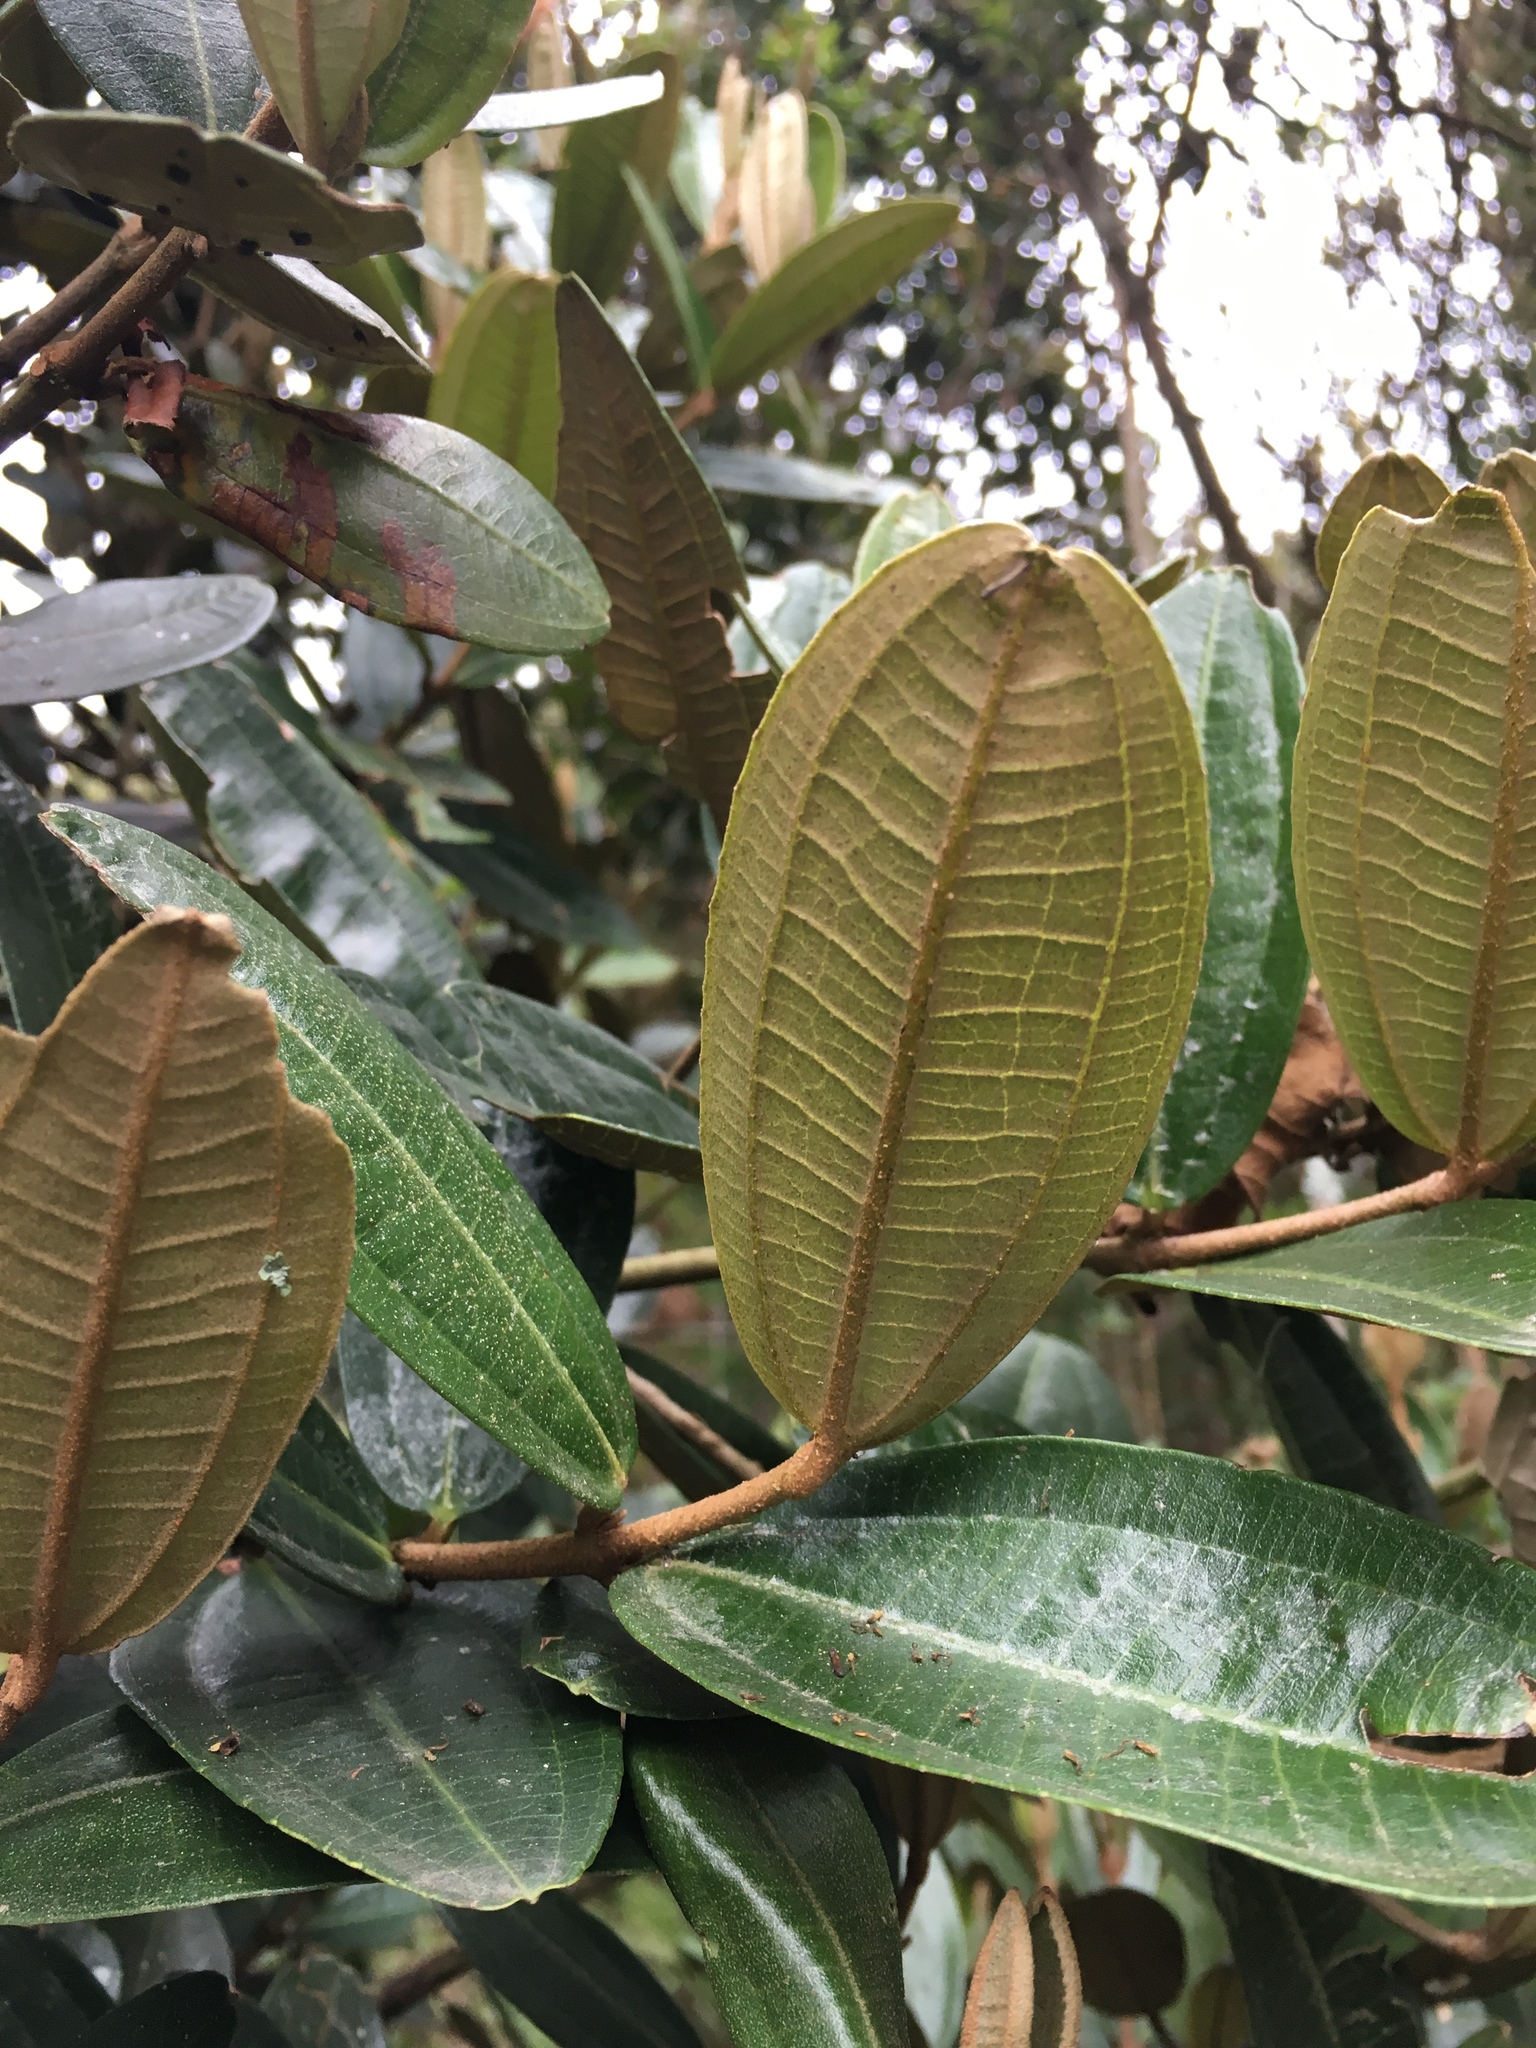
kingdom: Plantae
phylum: Tracheophyta
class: Magnoliopsida
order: Myrtales
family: Melastomataceae
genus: Miconia
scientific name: Miconia squamulosa
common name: Squamulose maya
